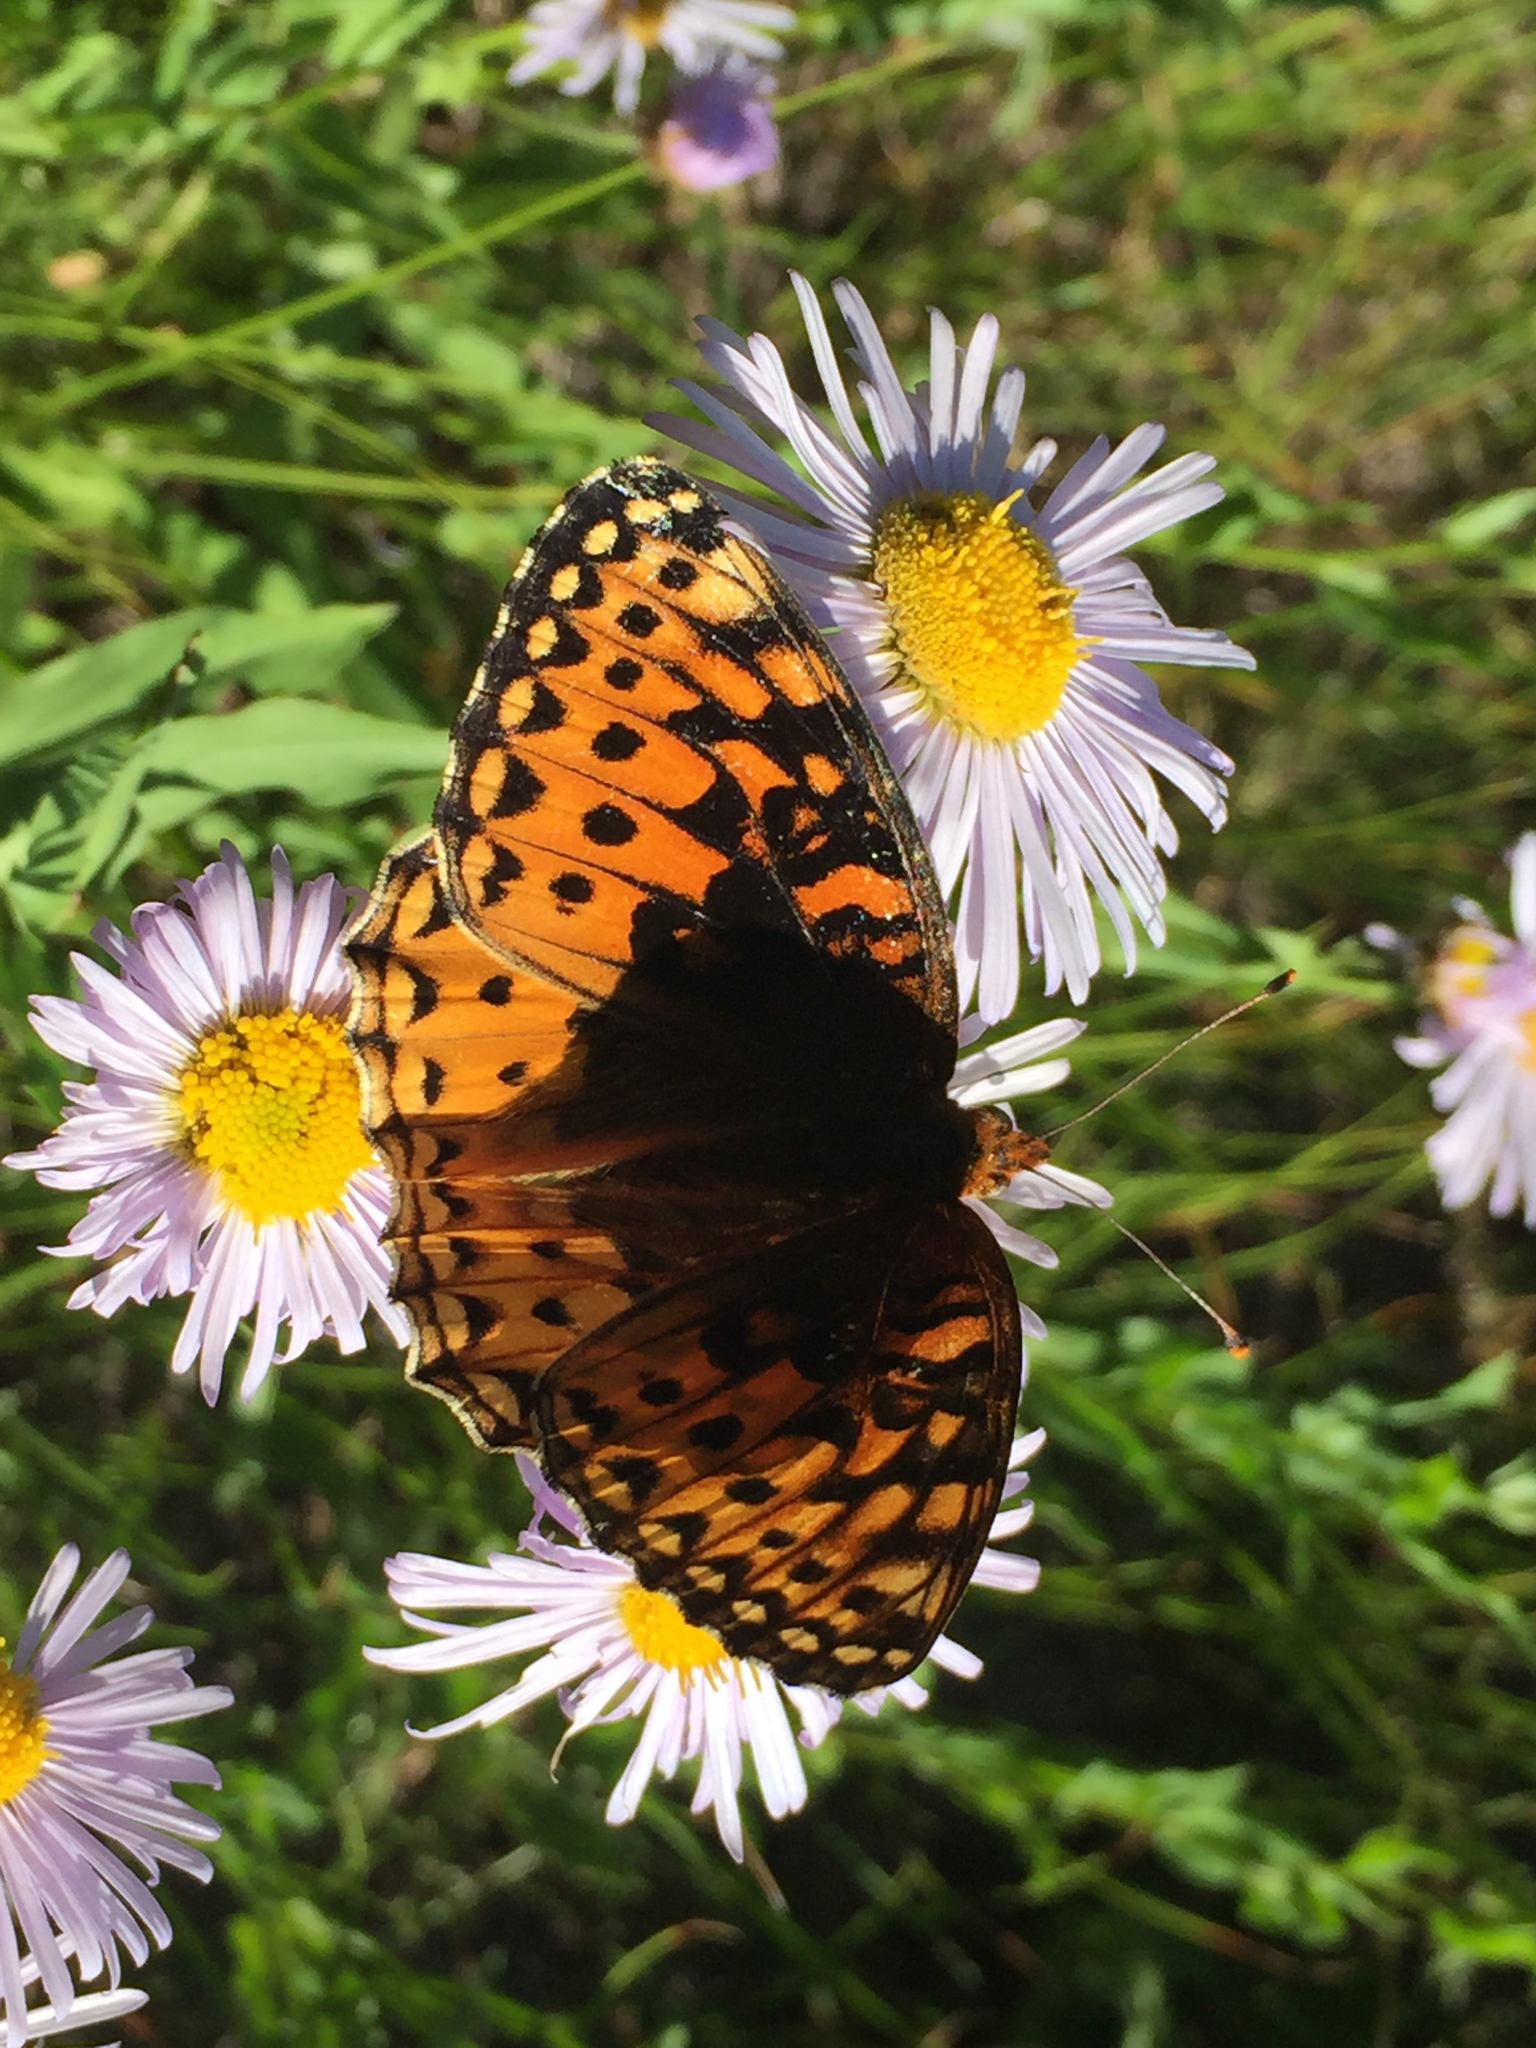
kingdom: Animalia
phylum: Arthropoda
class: Insecta
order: Lepidoptera
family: Nymphalidae
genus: Speyeria
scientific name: Speyeria atlantis
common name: Atlantis fritillary
